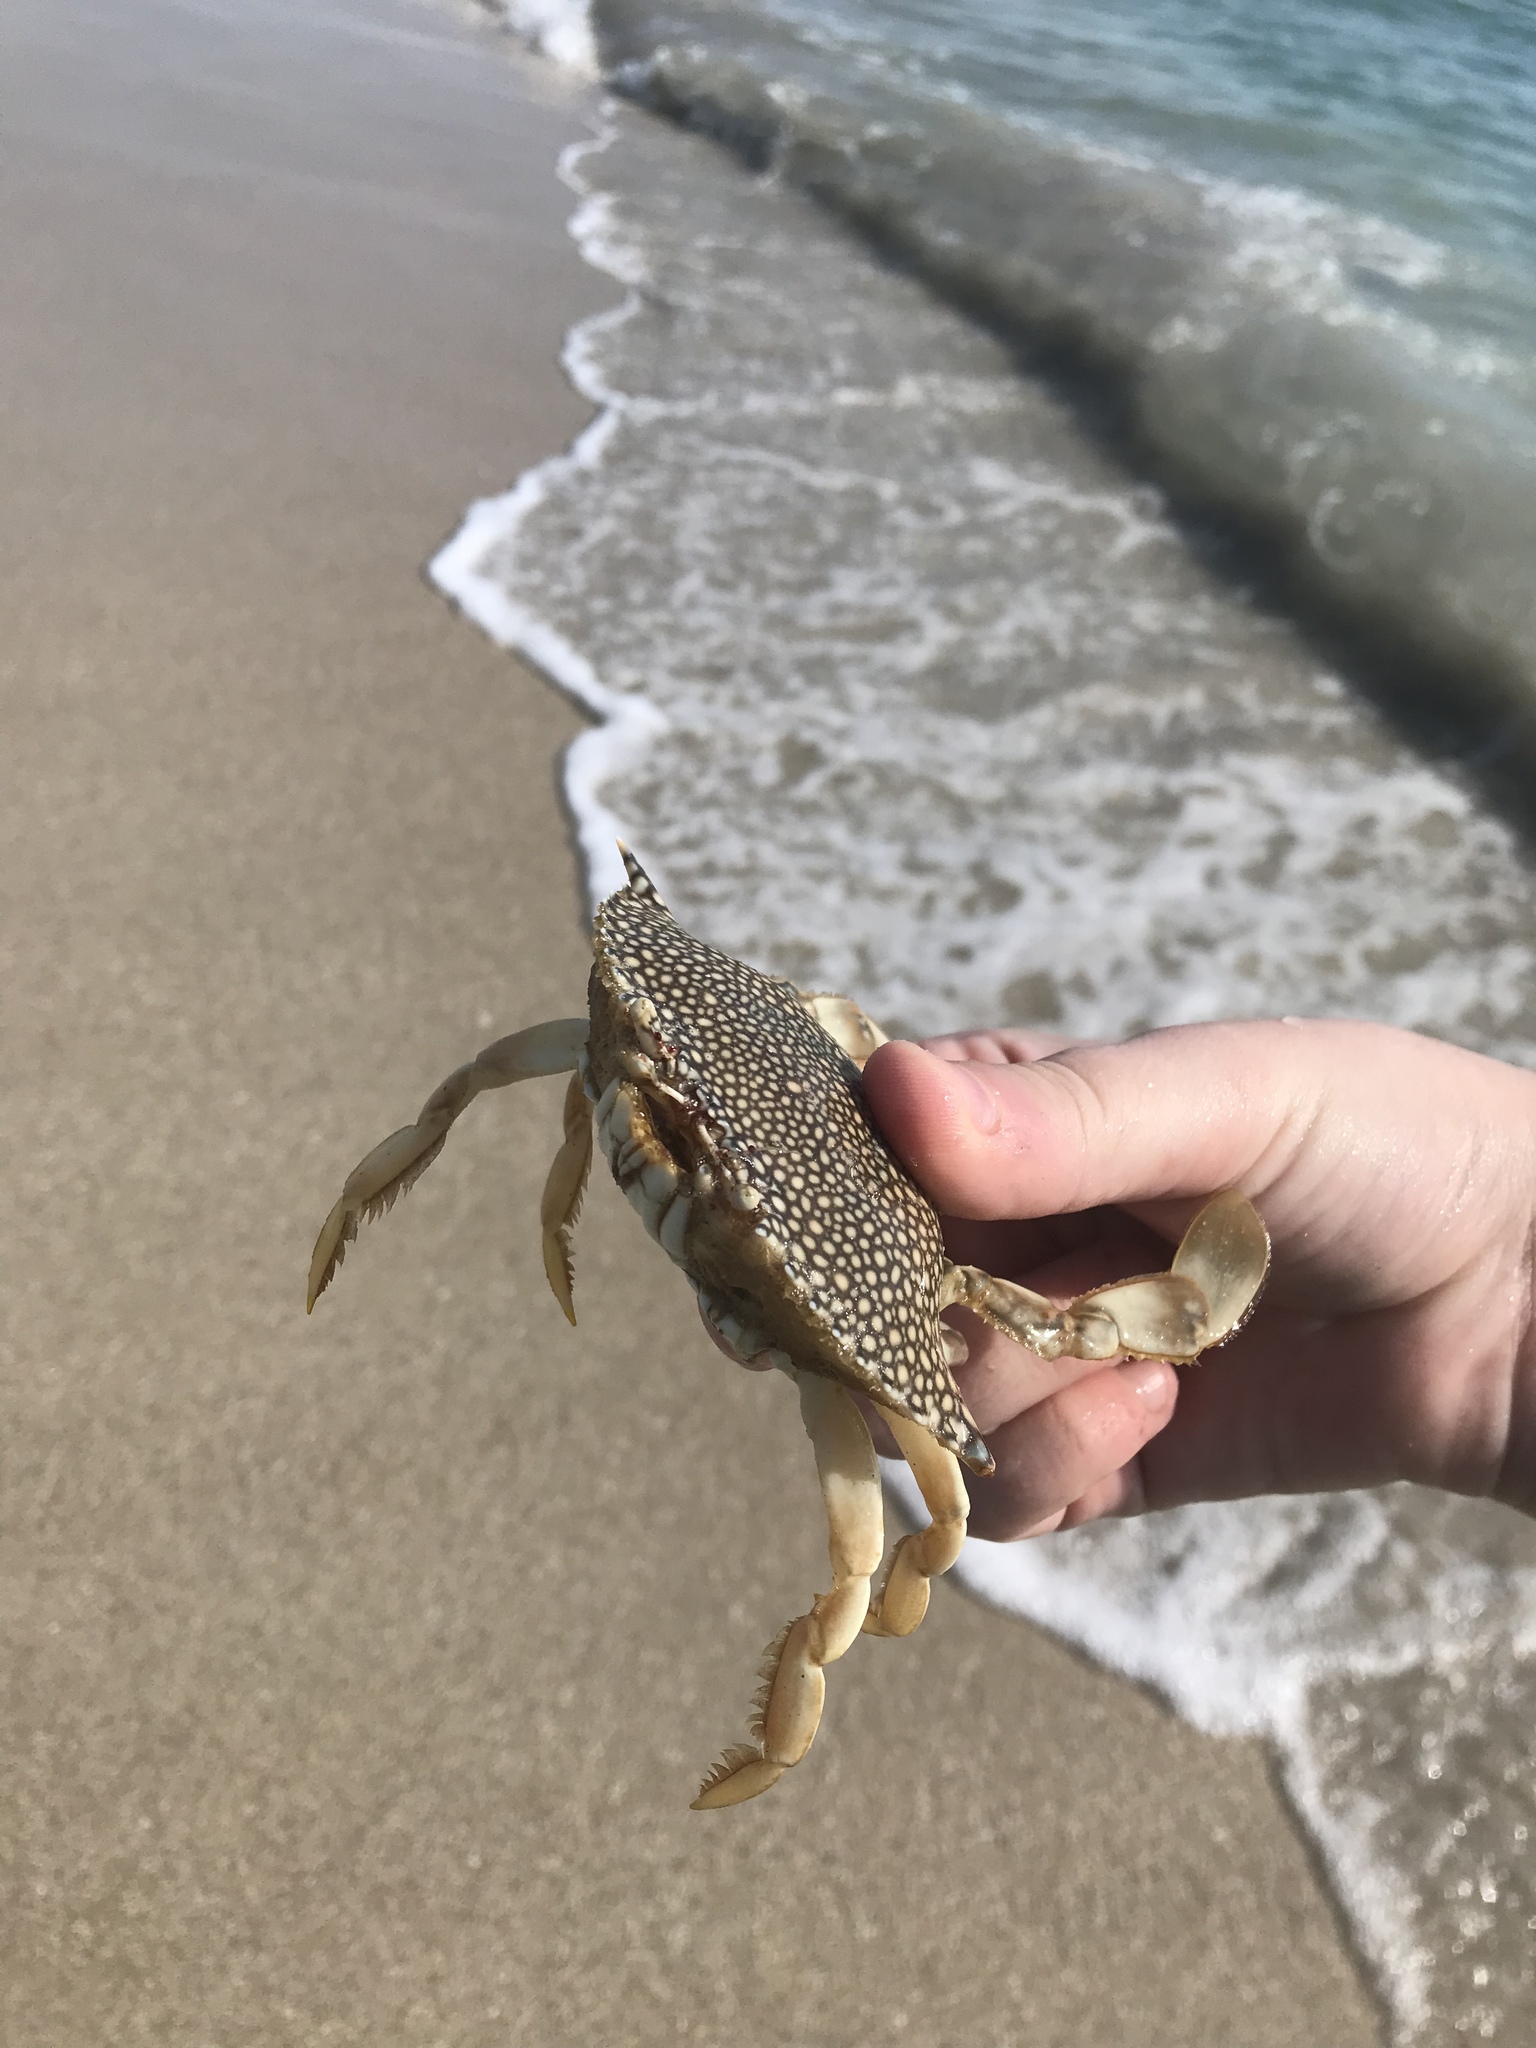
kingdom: Animalia
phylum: Arthropoda
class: Malacostraca
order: Decapoda
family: Portunidae
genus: Arenaeus
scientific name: Arenaeus cribrarius
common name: Speckled crab
